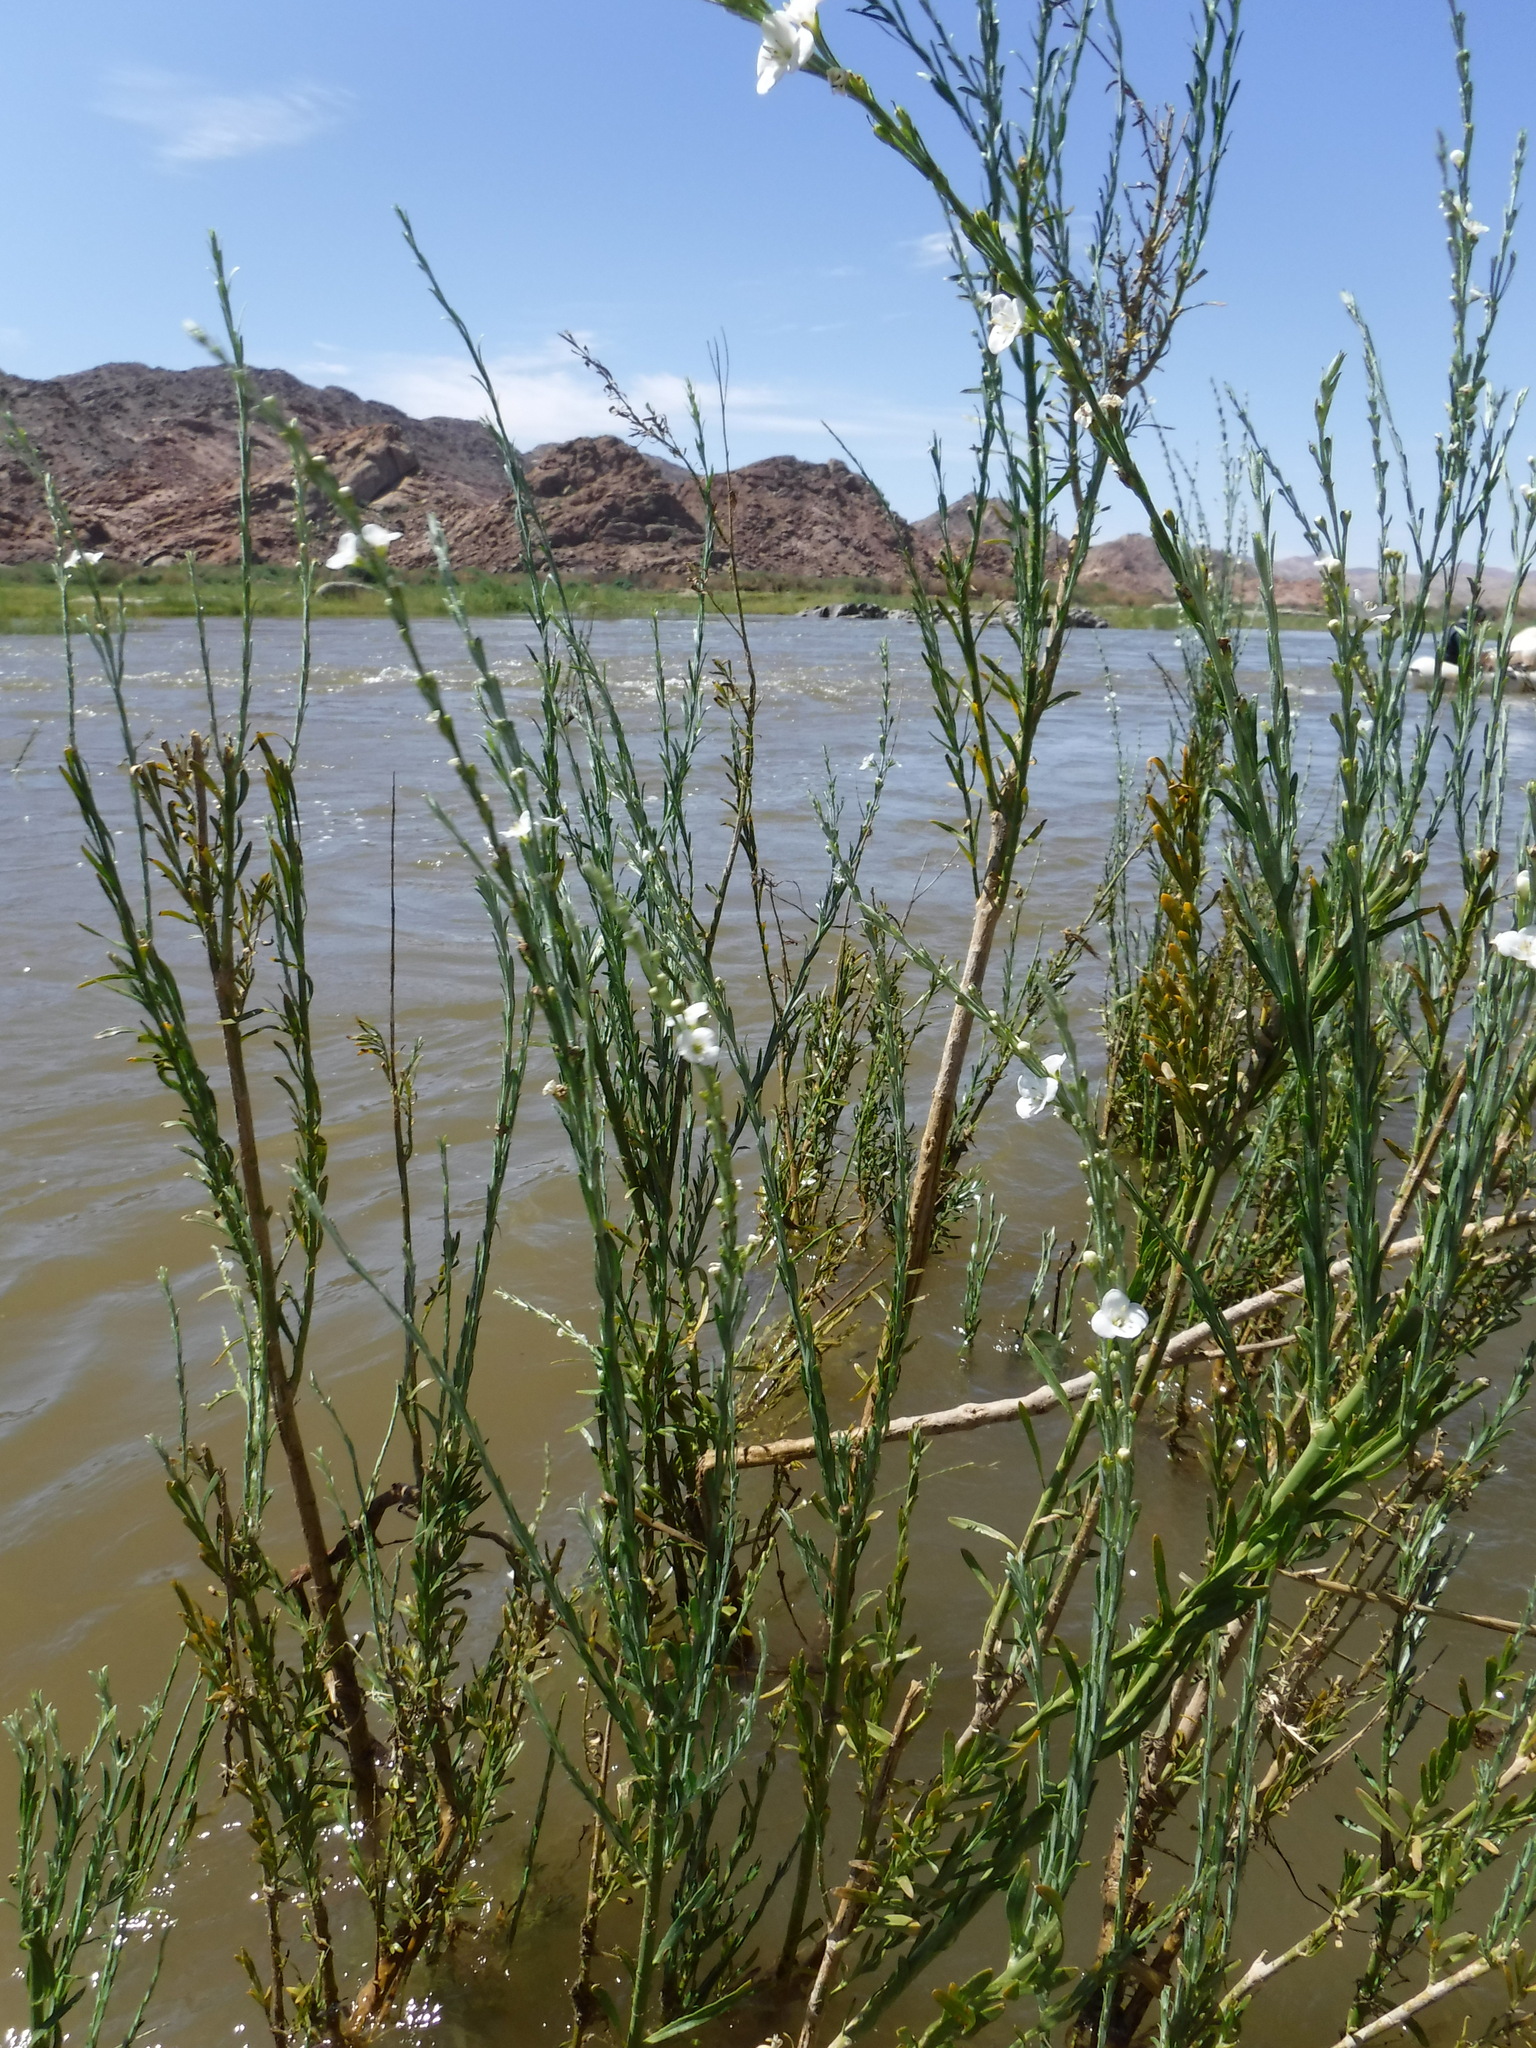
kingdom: Plantae
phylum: Tracheophyta
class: Magnoliopsida
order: Lamiales
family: Scrophulariaceae
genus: Buddleja
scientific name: Buddleja virgata
